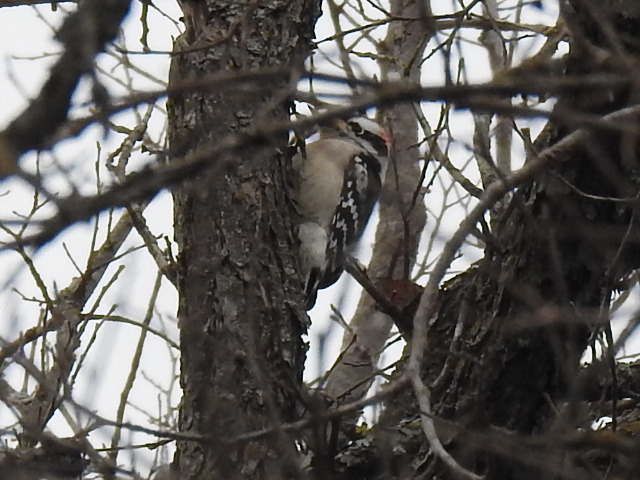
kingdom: Animalia
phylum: Chordata
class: Aves
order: Piciformes
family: Picidae
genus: Dryobates
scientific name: Dryobates pubescens
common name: Downy woodpecker
